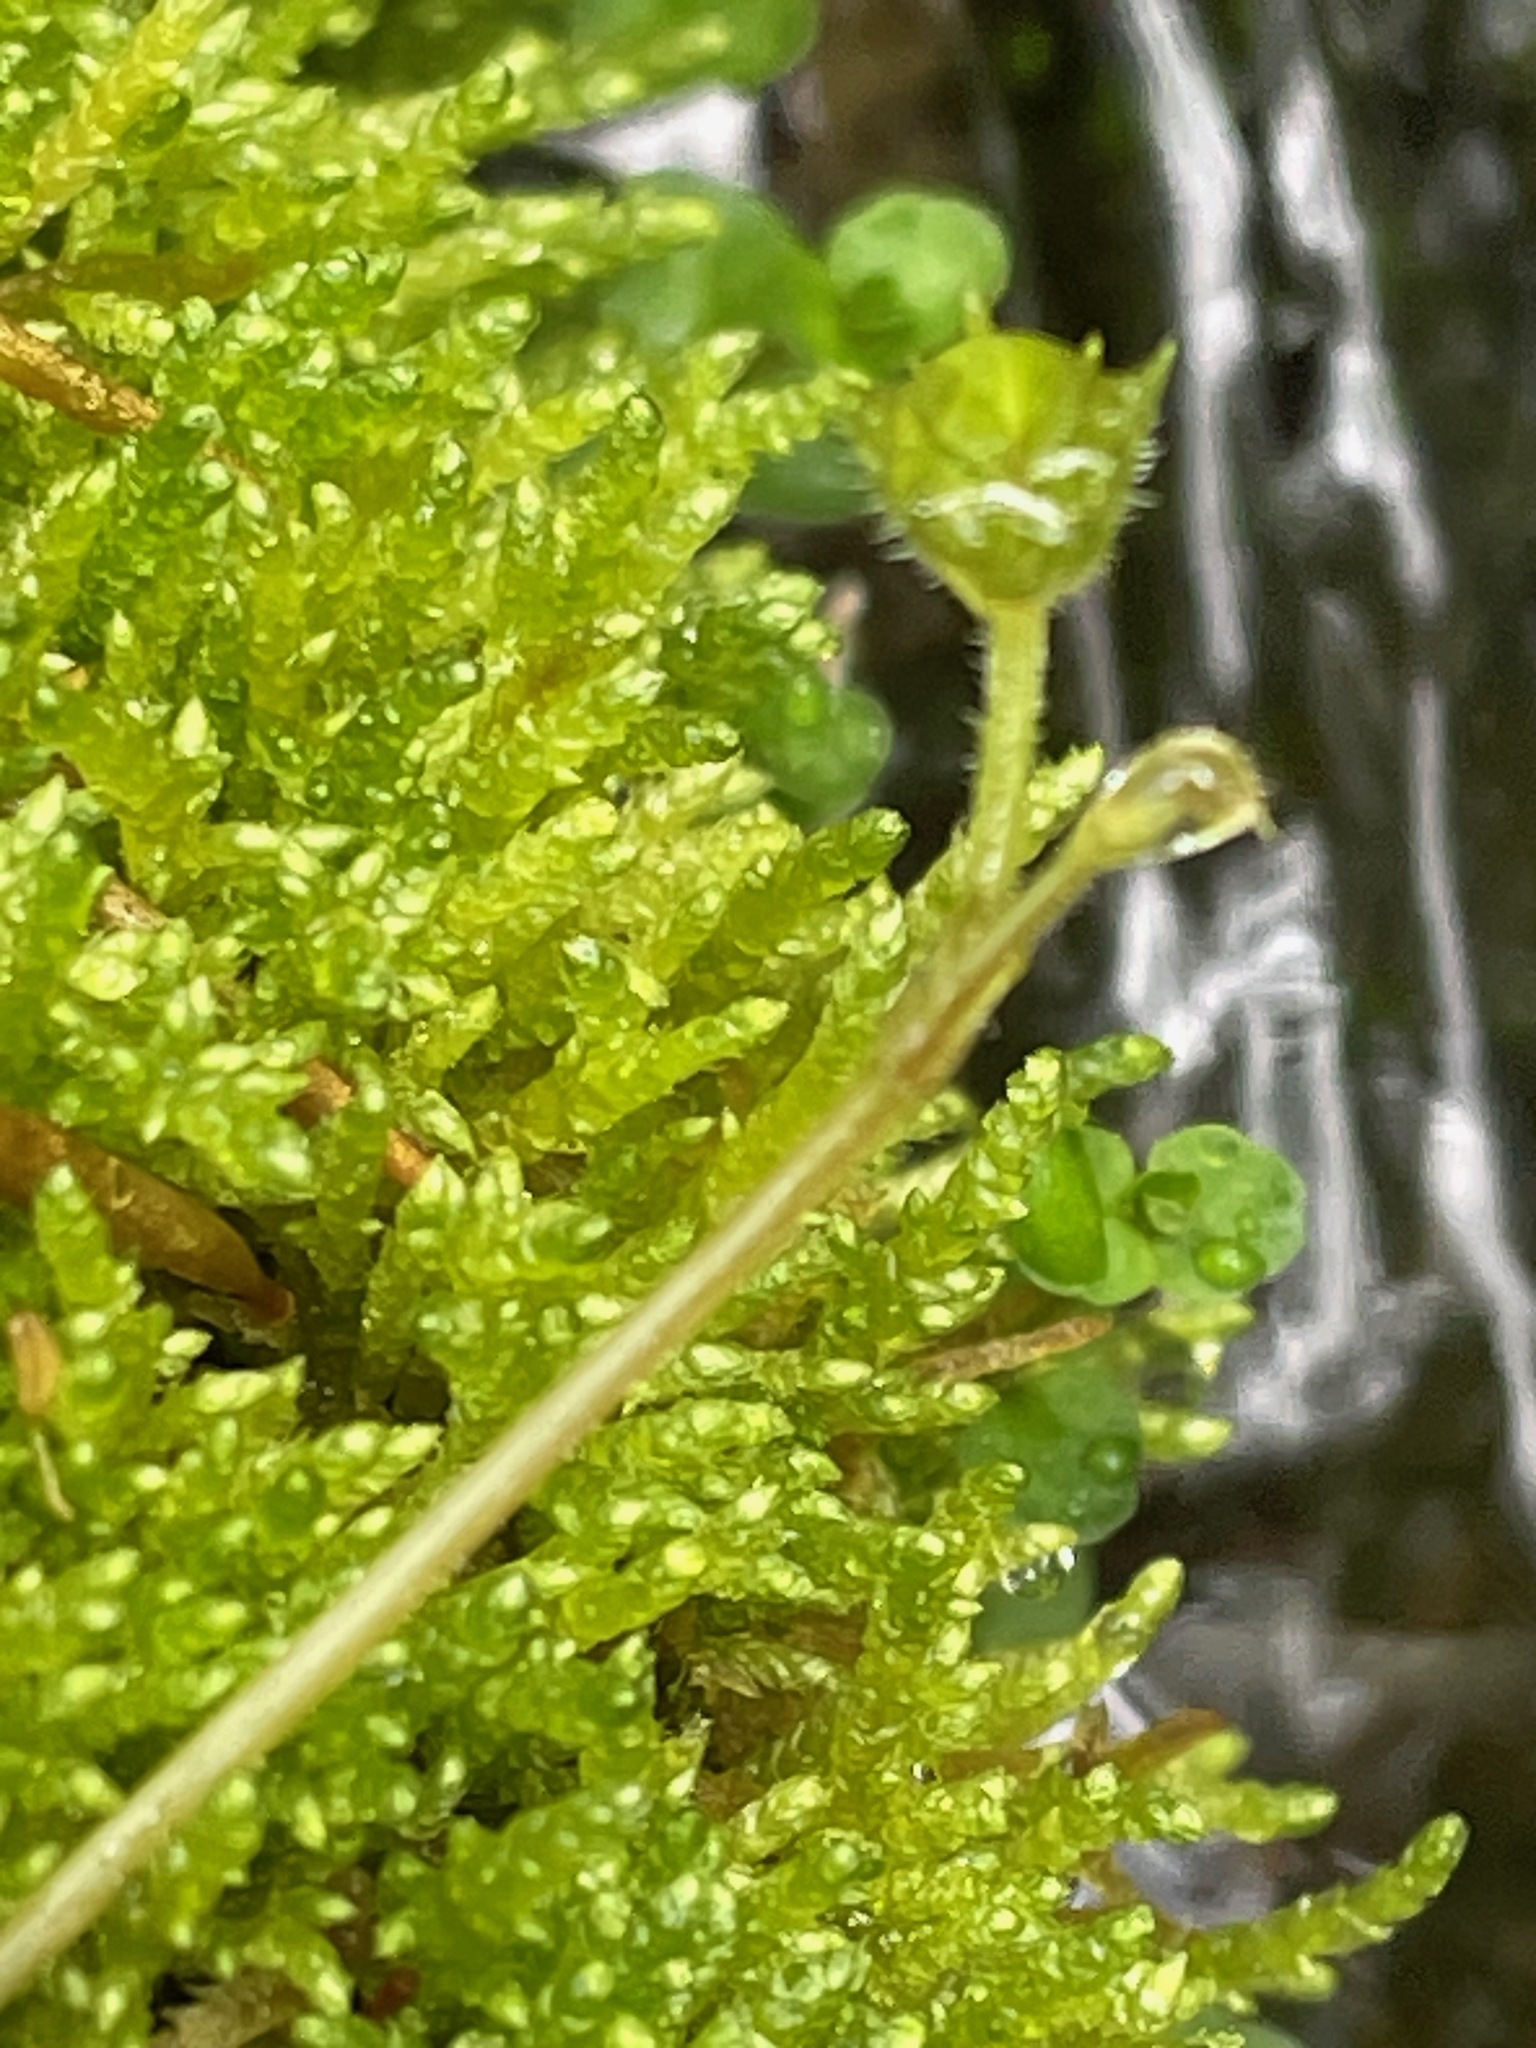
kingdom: Plantae
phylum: Tracheophyta
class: Magnoliopsida
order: Saxifragales
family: Saxifragaceae
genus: Tiarella
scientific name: Tiarella stolonifera
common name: Stoloniferous foamflower
